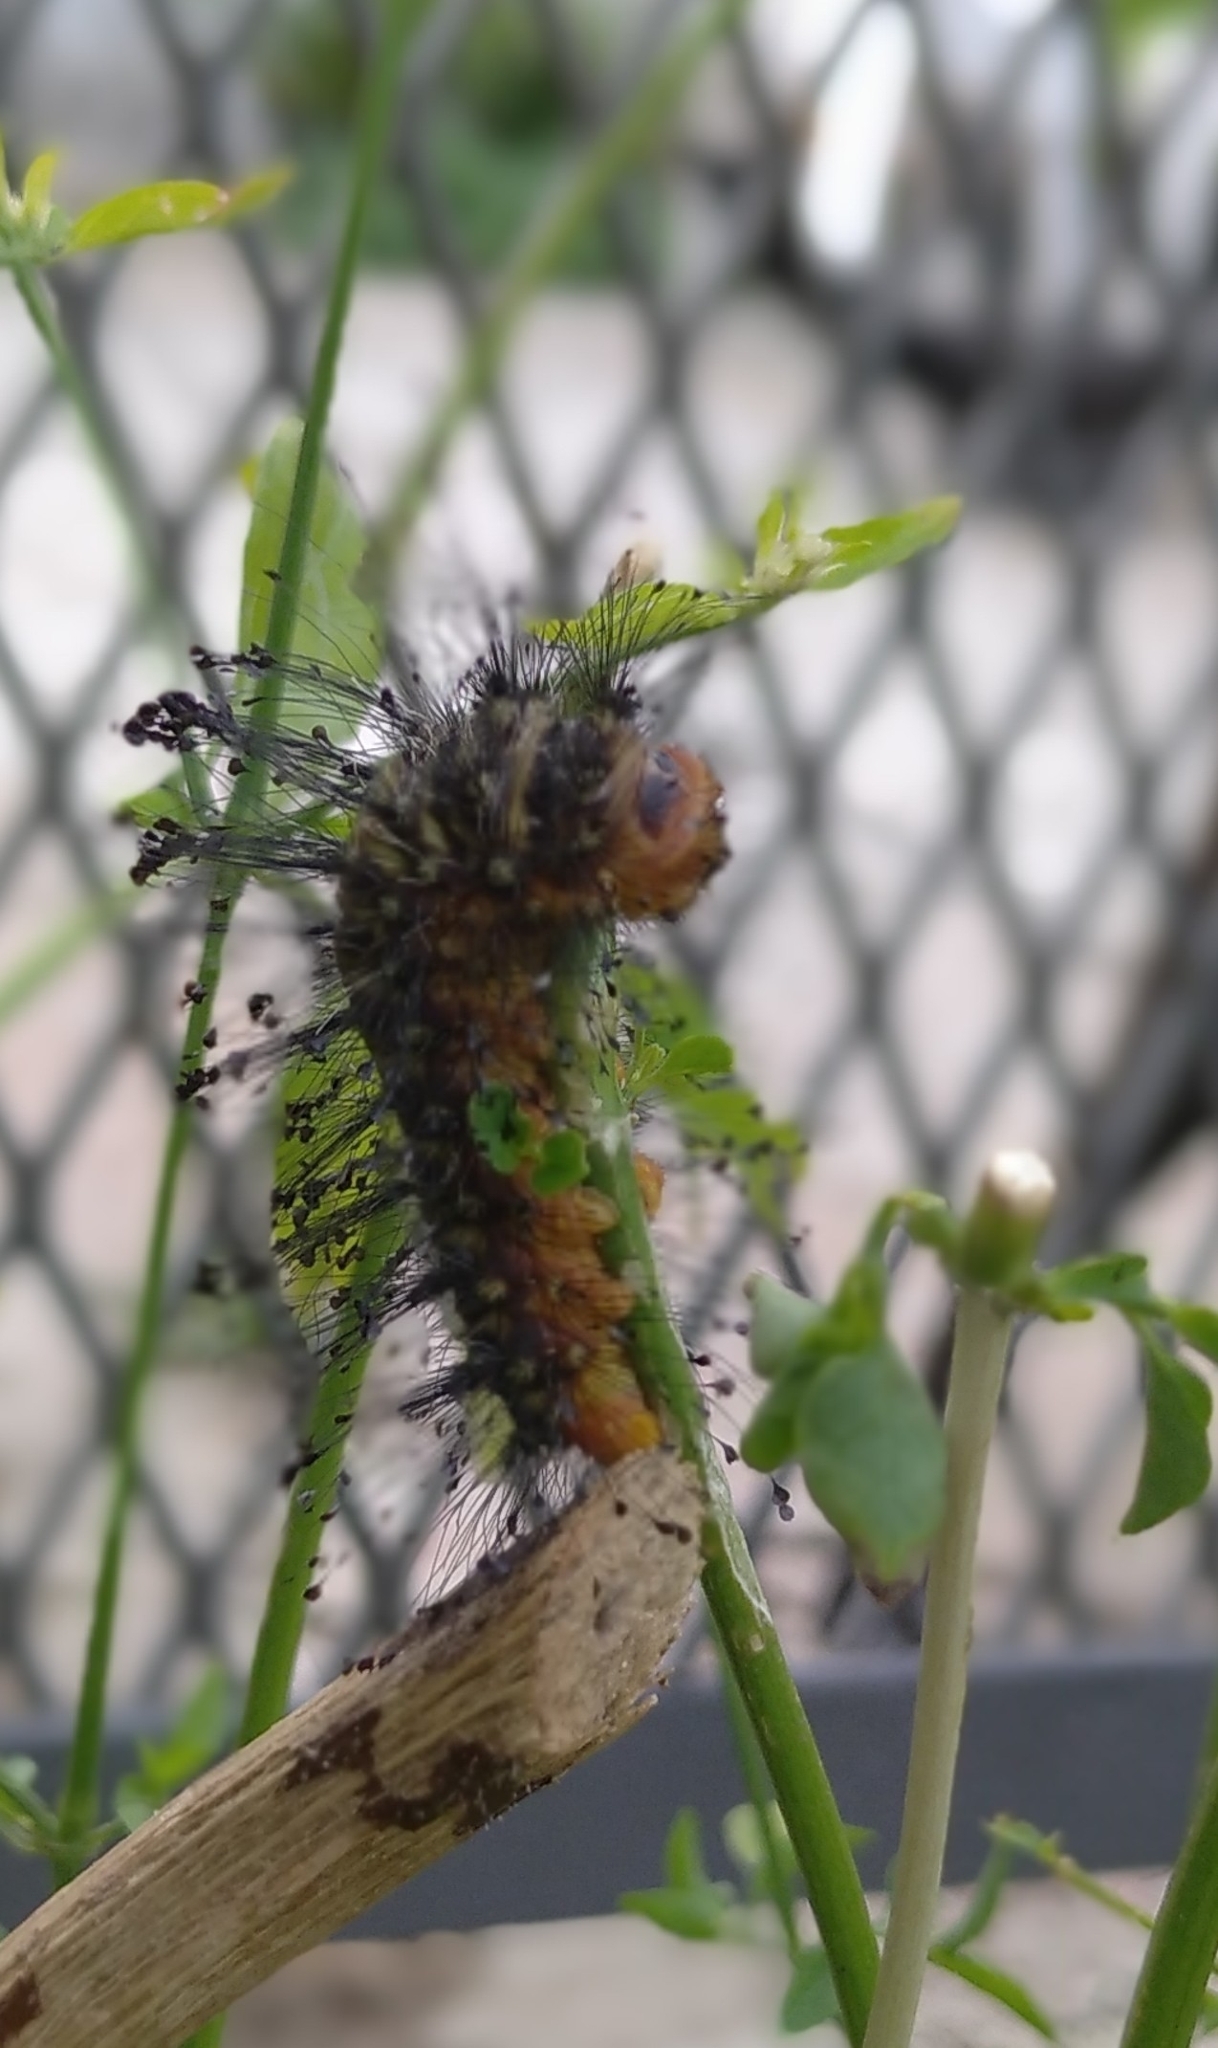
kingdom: Animalia
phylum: Arthropoda
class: Insecta
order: Lepidoptera
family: Megalopygidae
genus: Megalopyge
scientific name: Megalopyge urens
